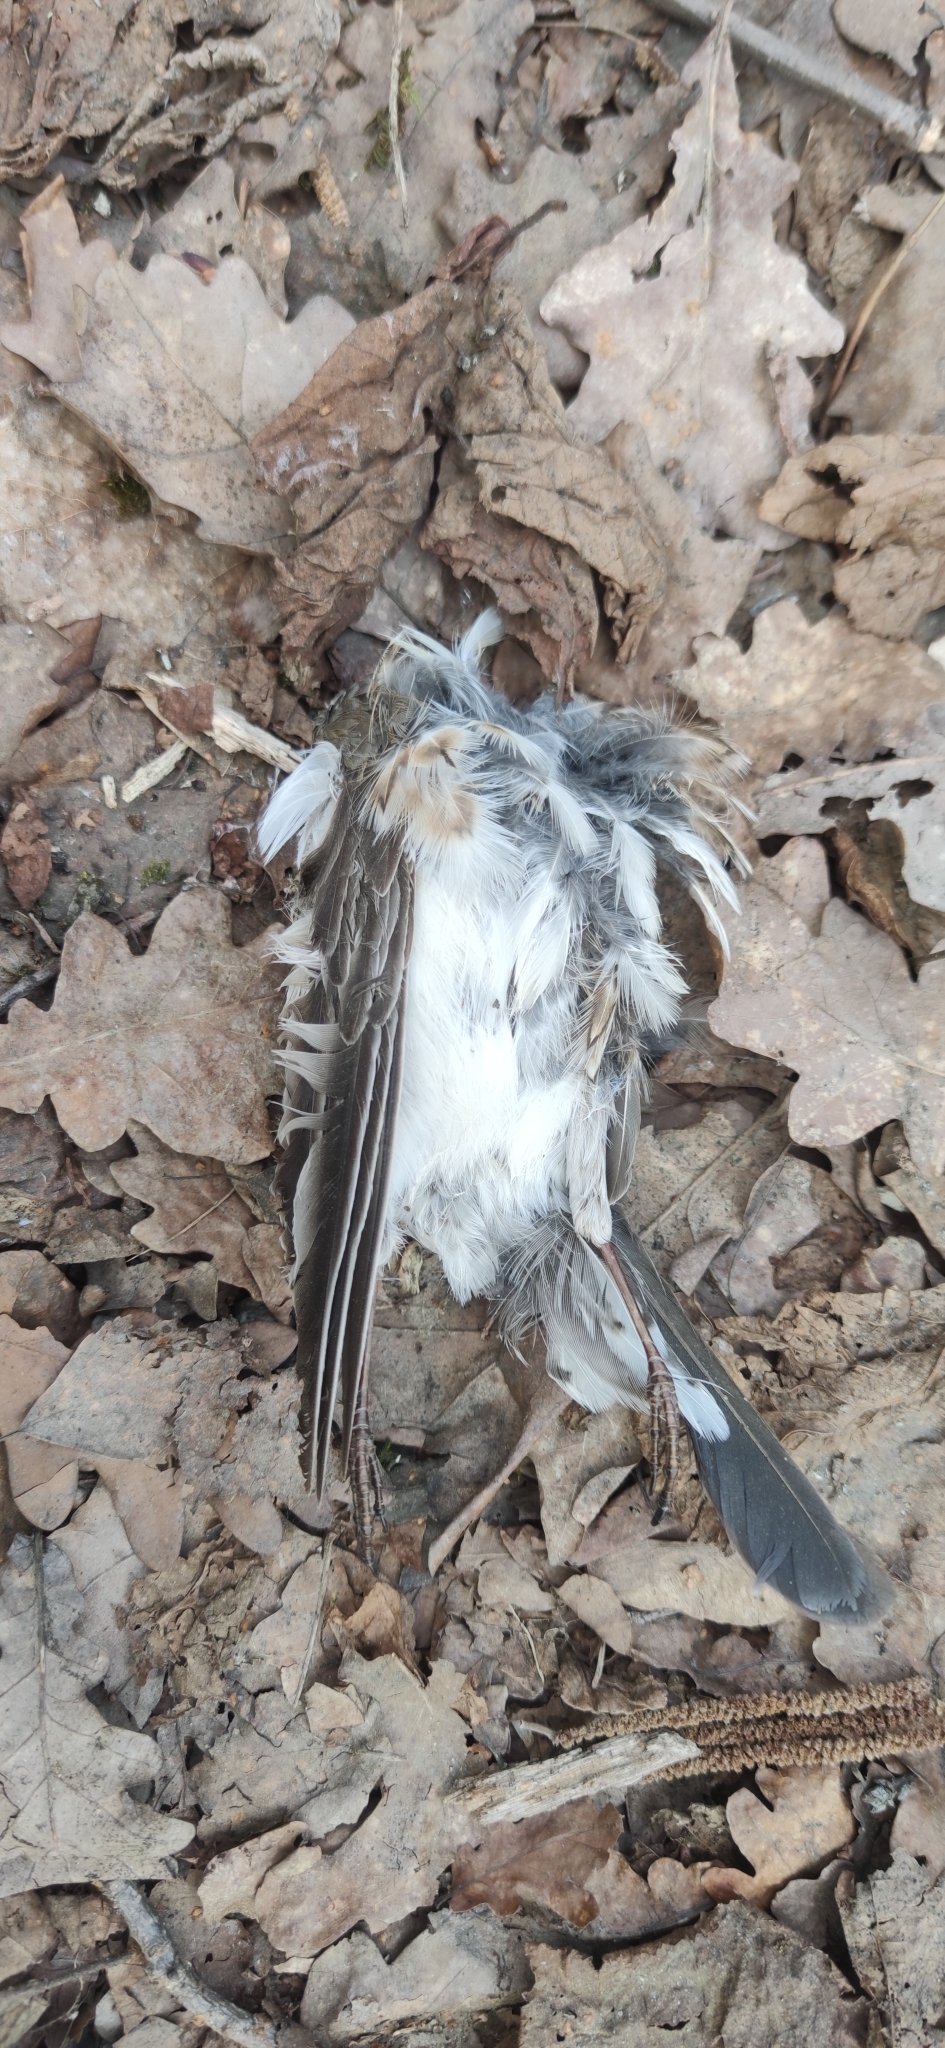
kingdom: Animalia
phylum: Chordata
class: Aves
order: Passeriformes
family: Turdidae
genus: Turdus
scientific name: Turdus pilaris
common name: Fieldfare
